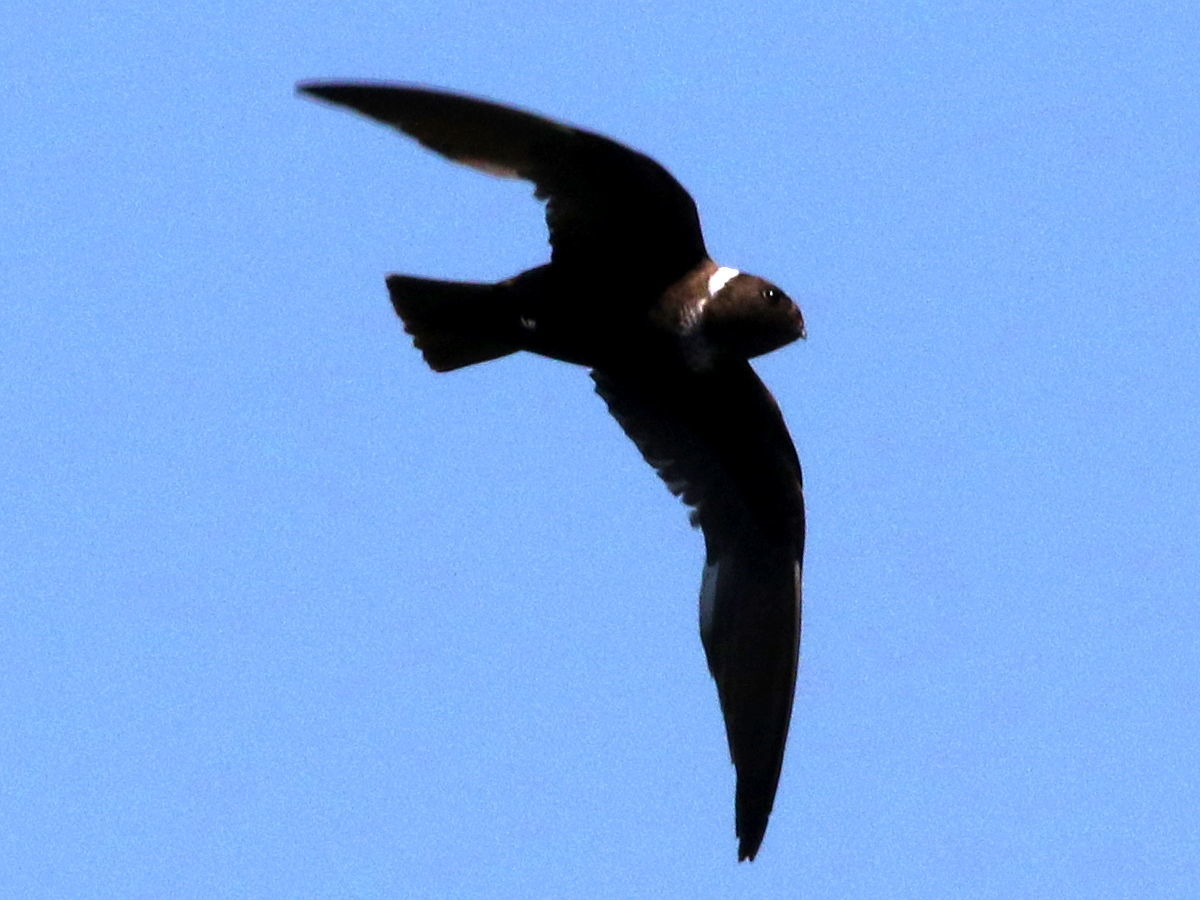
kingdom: Animalia
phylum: Chordata
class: Aves
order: Apodiformes
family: Apodidae
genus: Streptoprocne
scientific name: Streptoprocne zonaris
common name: White-collared swift
